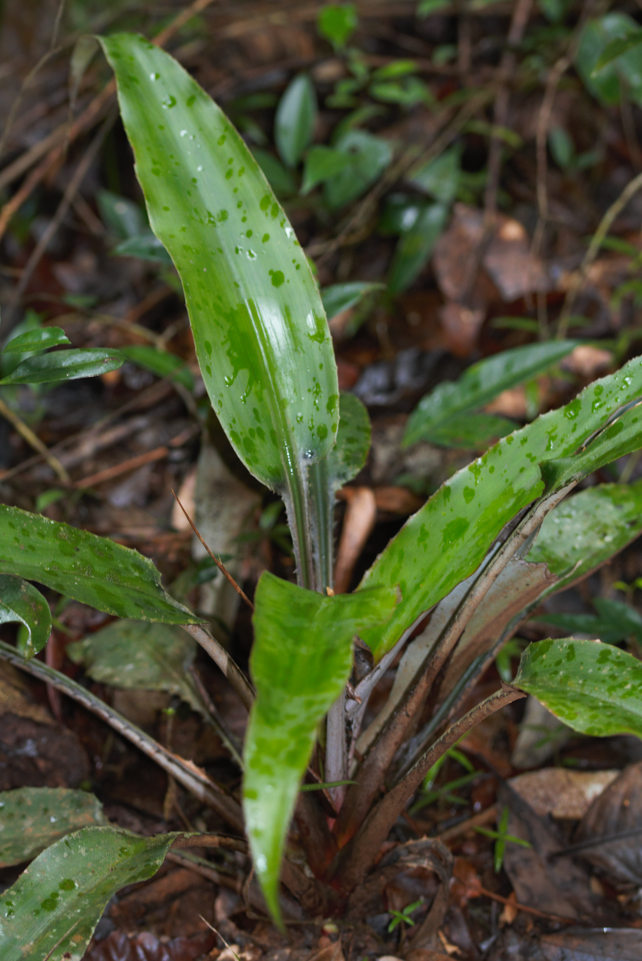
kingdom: Plantae
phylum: Tracheophyta
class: Liliopsida
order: Poales
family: Bromeliaceae
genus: Disteganthus
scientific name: Disteganthus basilateralis
